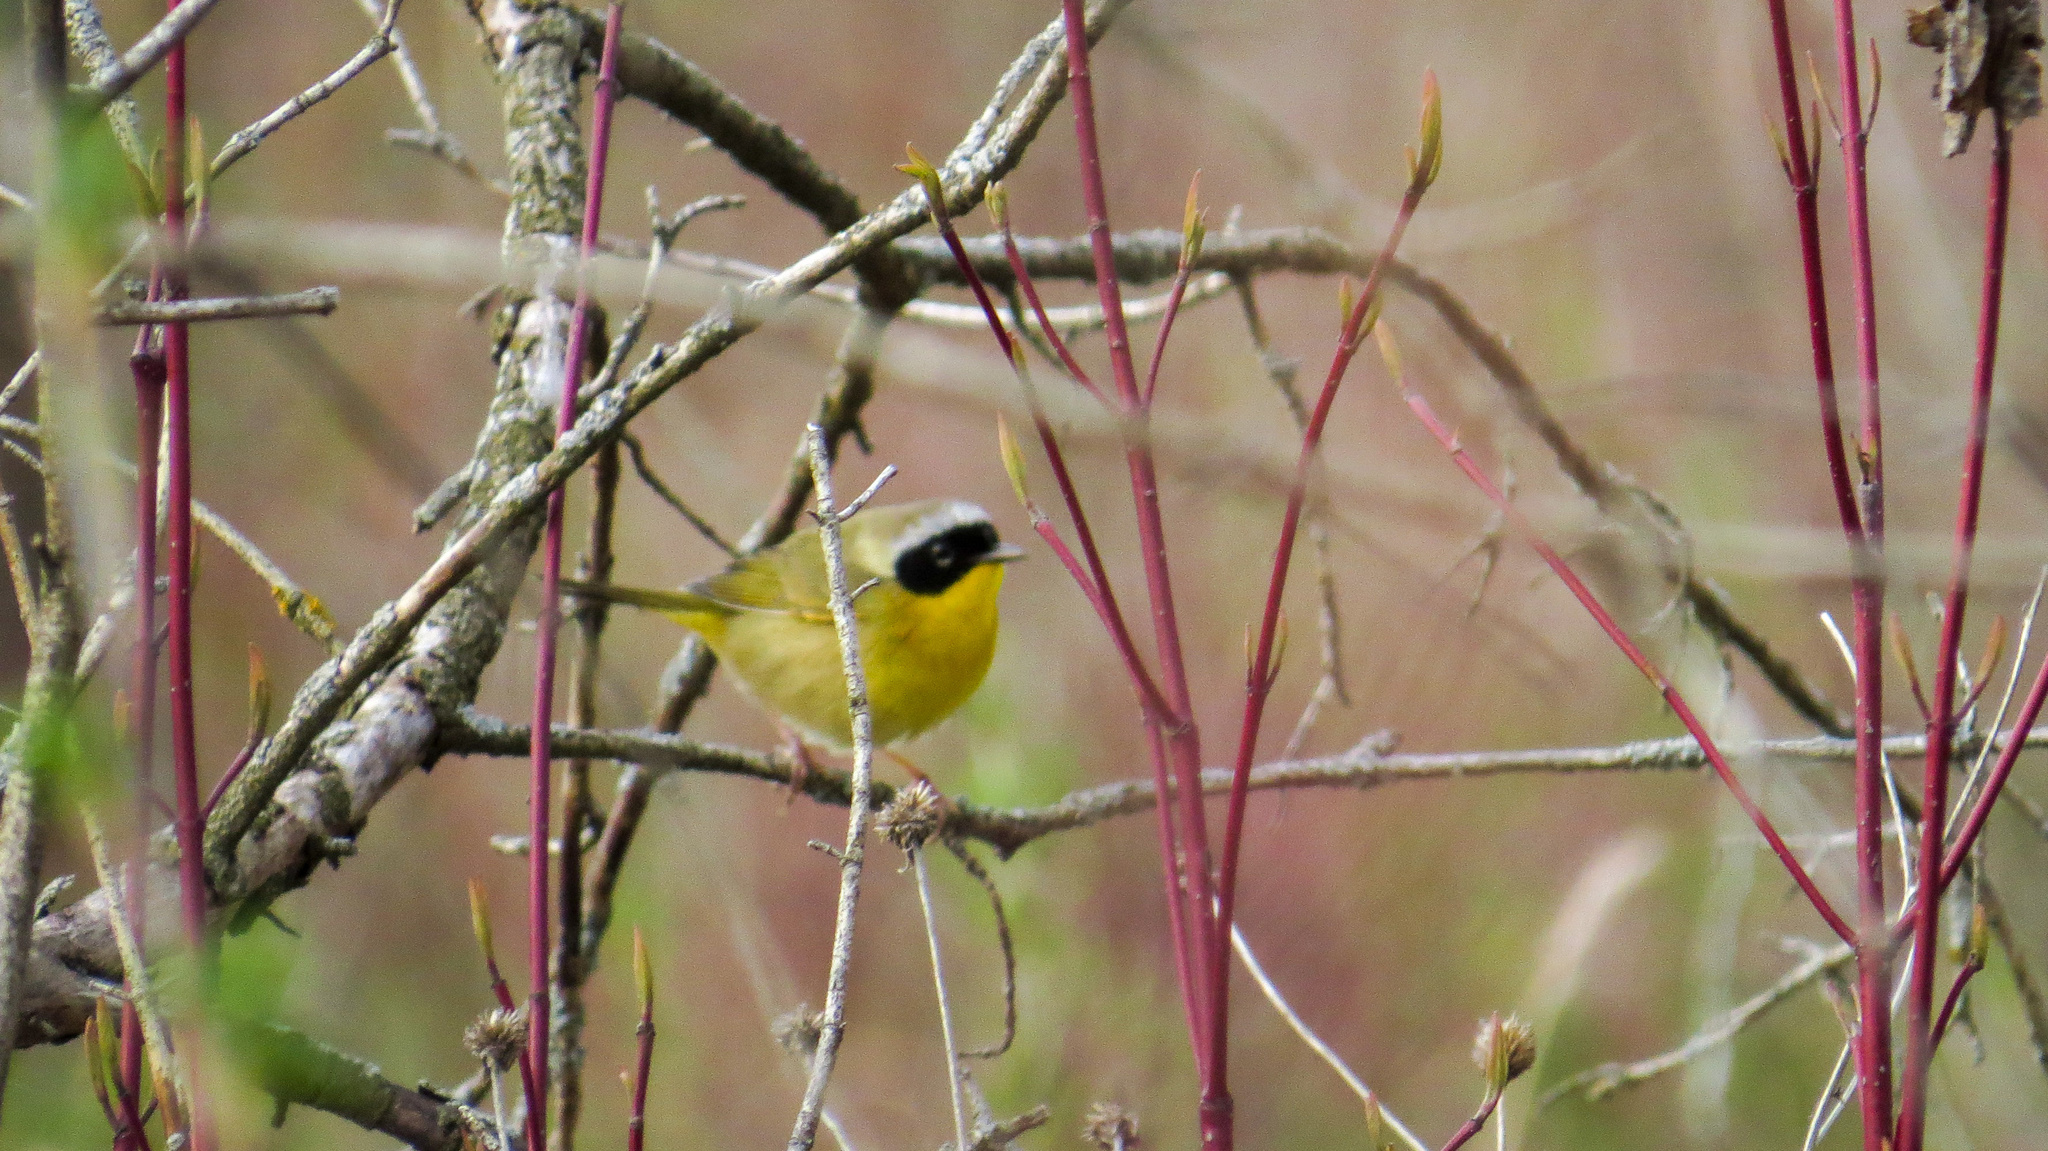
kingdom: Animalia
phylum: Chordata
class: Aves
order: Passeriformes
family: Parulidae
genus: Geothlypis
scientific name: Geothlypis trichas
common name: Common yellowthroat
